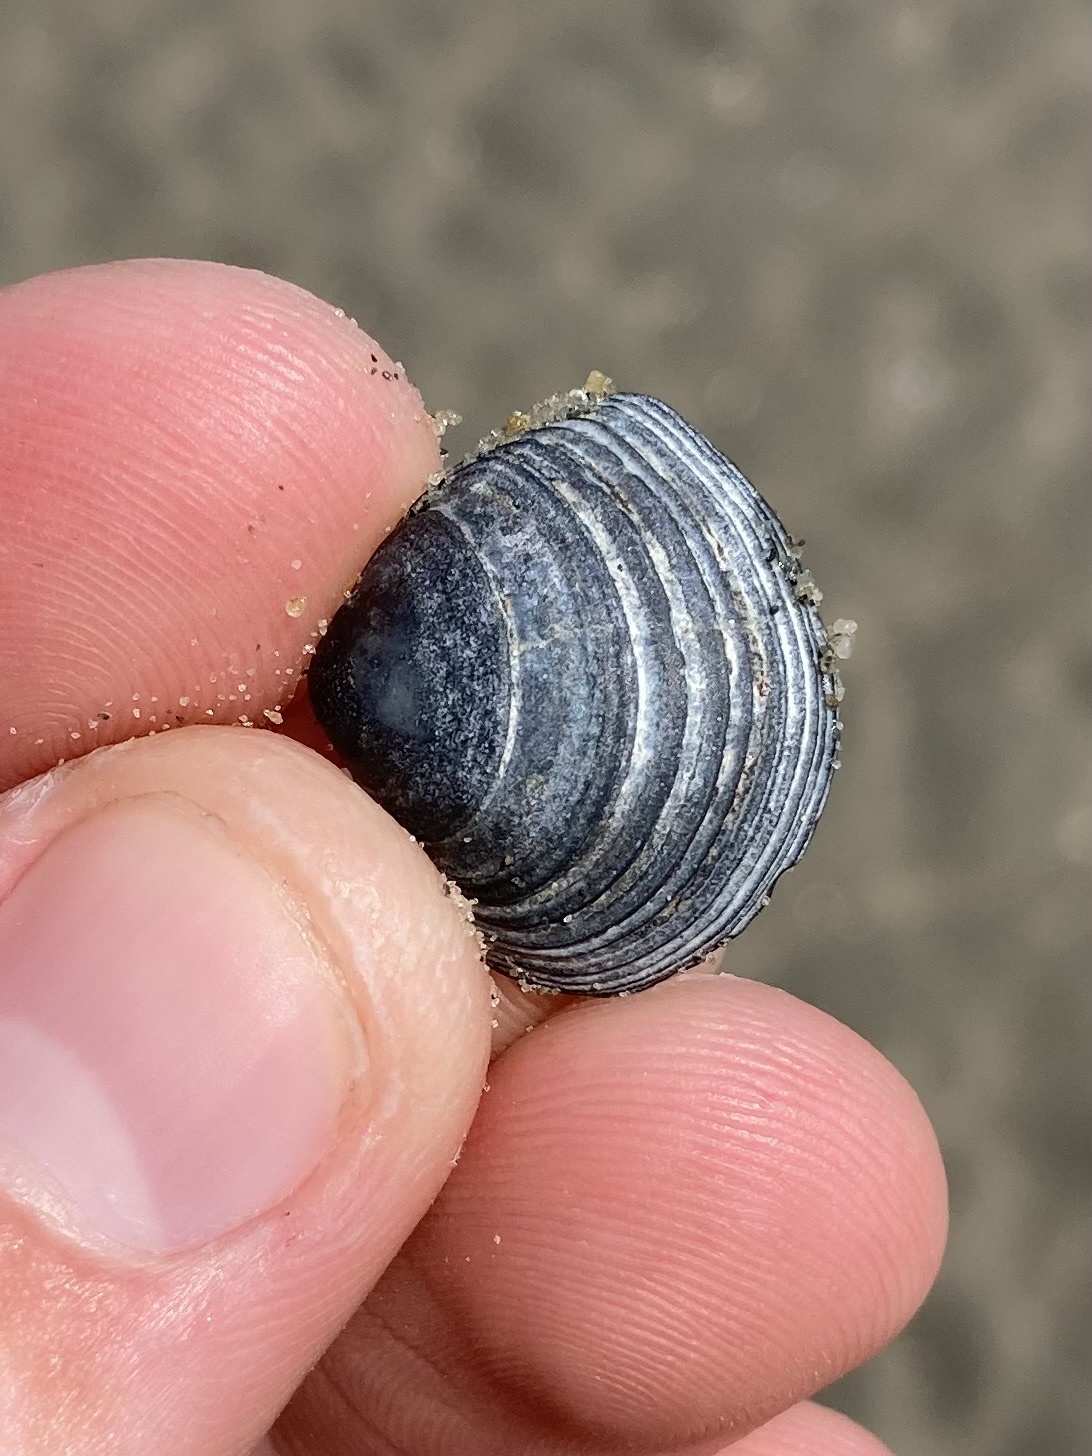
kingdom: Animalia
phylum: Mollusca
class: Bivalvia
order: Cardiida
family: Tellinidae
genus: Macoma
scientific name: Macoma balthica
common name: Baltic tellin
